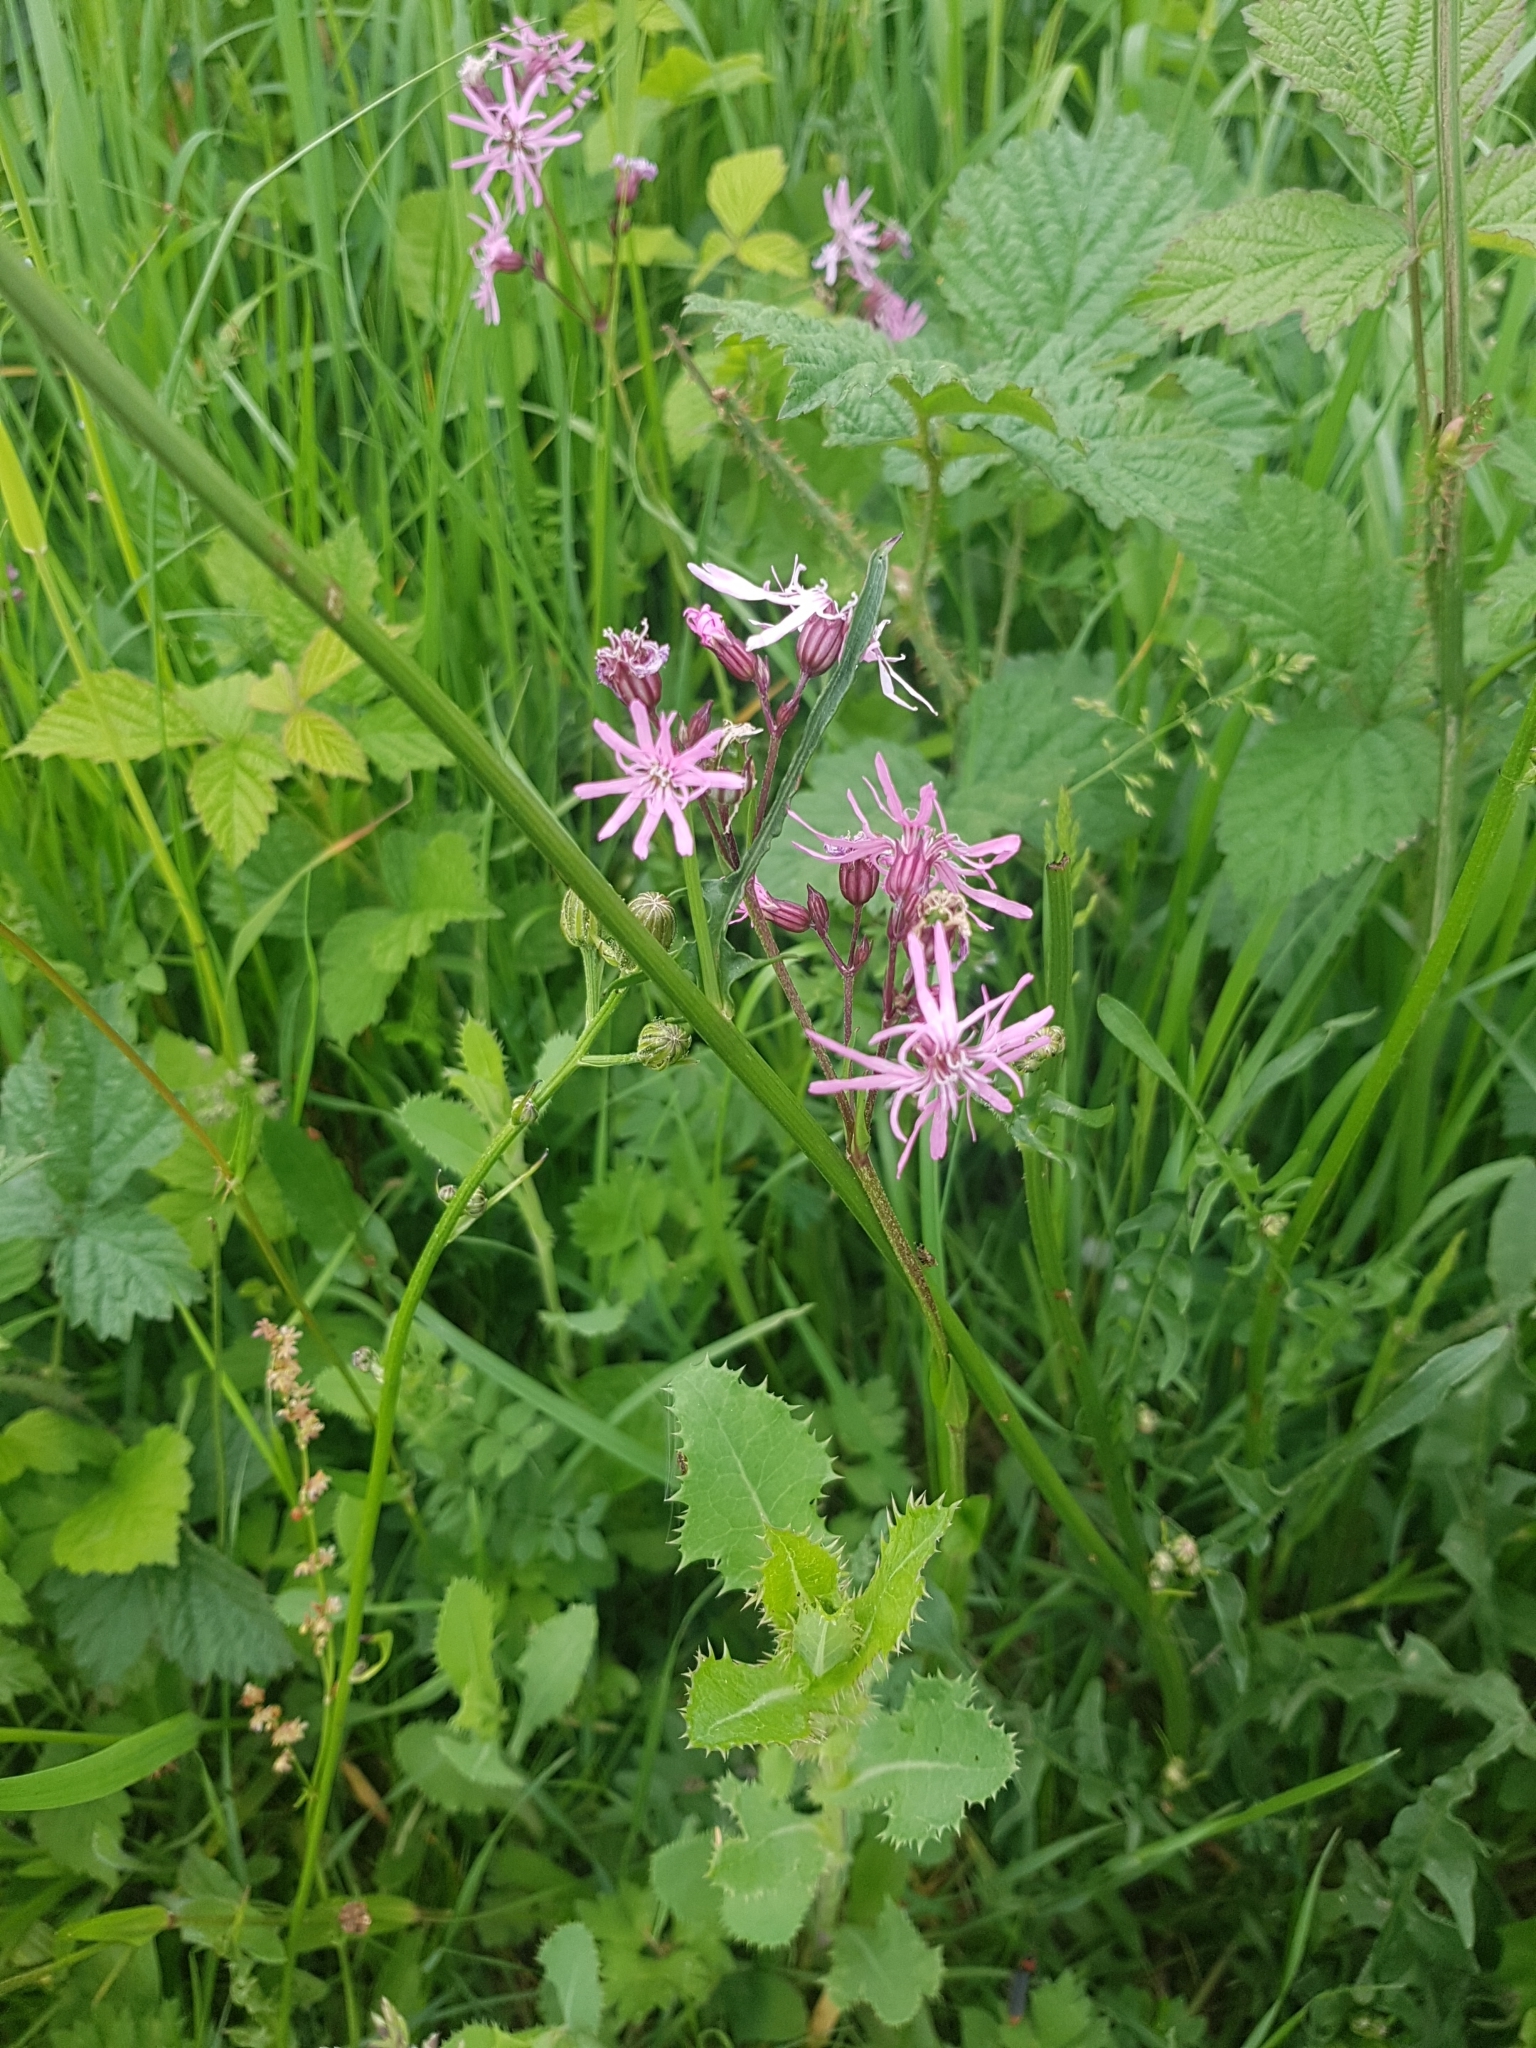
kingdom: Plantae
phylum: Tracheophyta
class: Magnoliopsida
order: Caryophyllales
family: Caryophyllaceae
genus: Silene
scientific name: Silene flos-cuculi
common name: Ragged-robin
